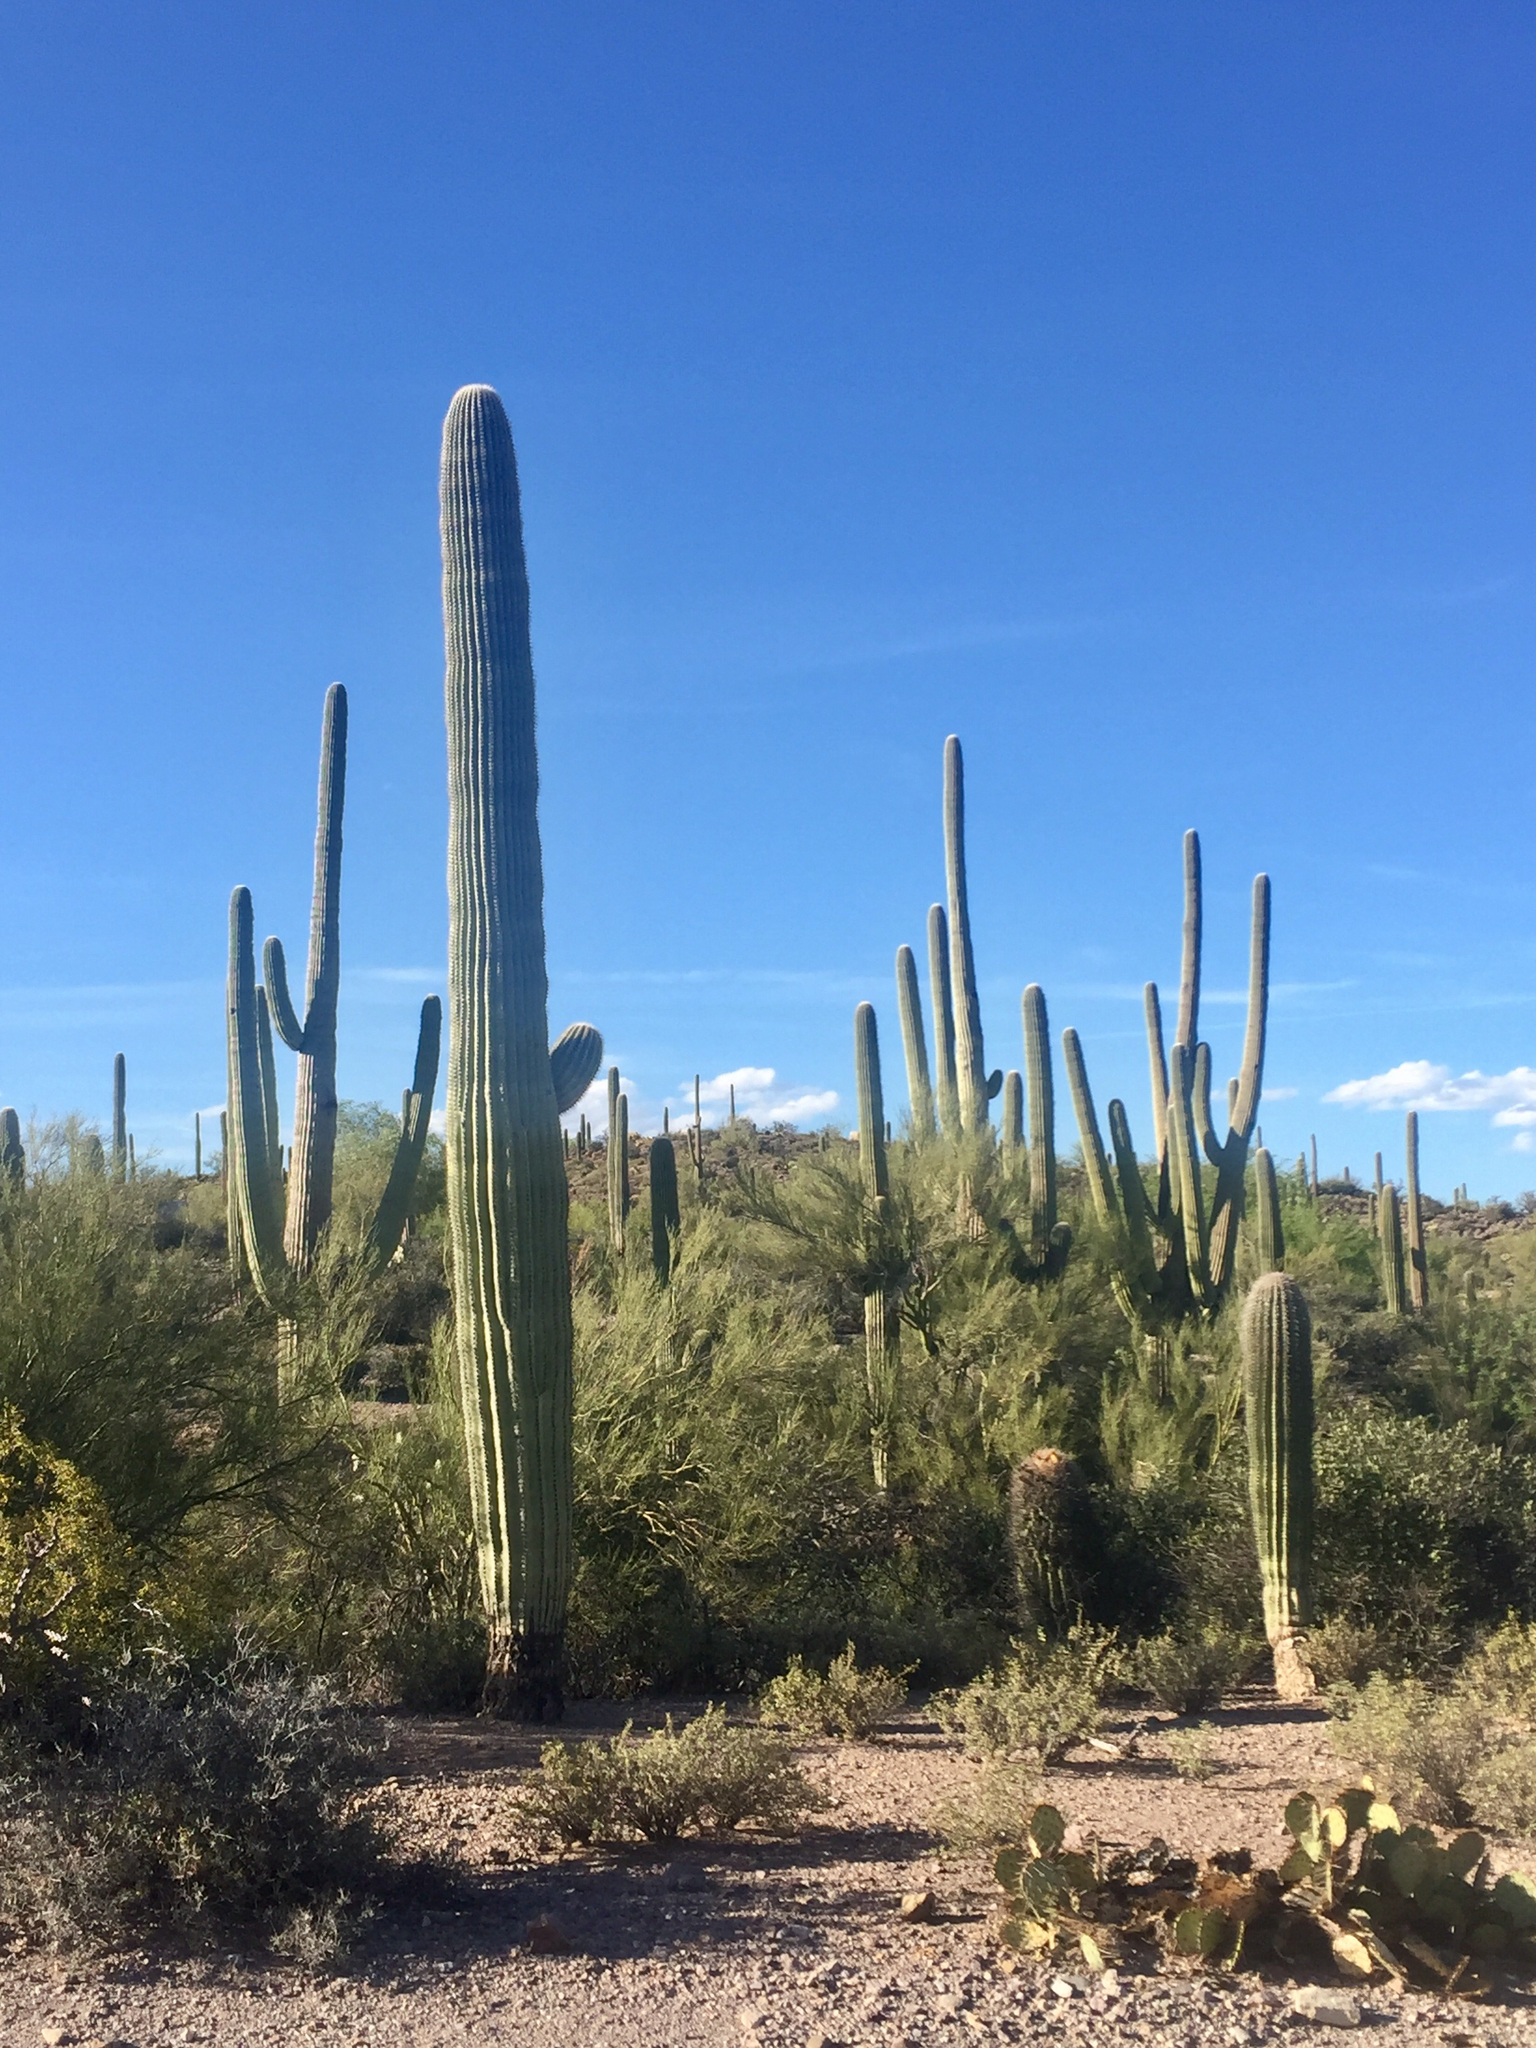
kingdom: Plantae
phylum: Tracheophyta
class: Magnoliopsida
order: Caryophyllales
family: Cactaceae
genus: Carnegiea
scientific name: Carnegiea gigantea
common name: Saguaro
